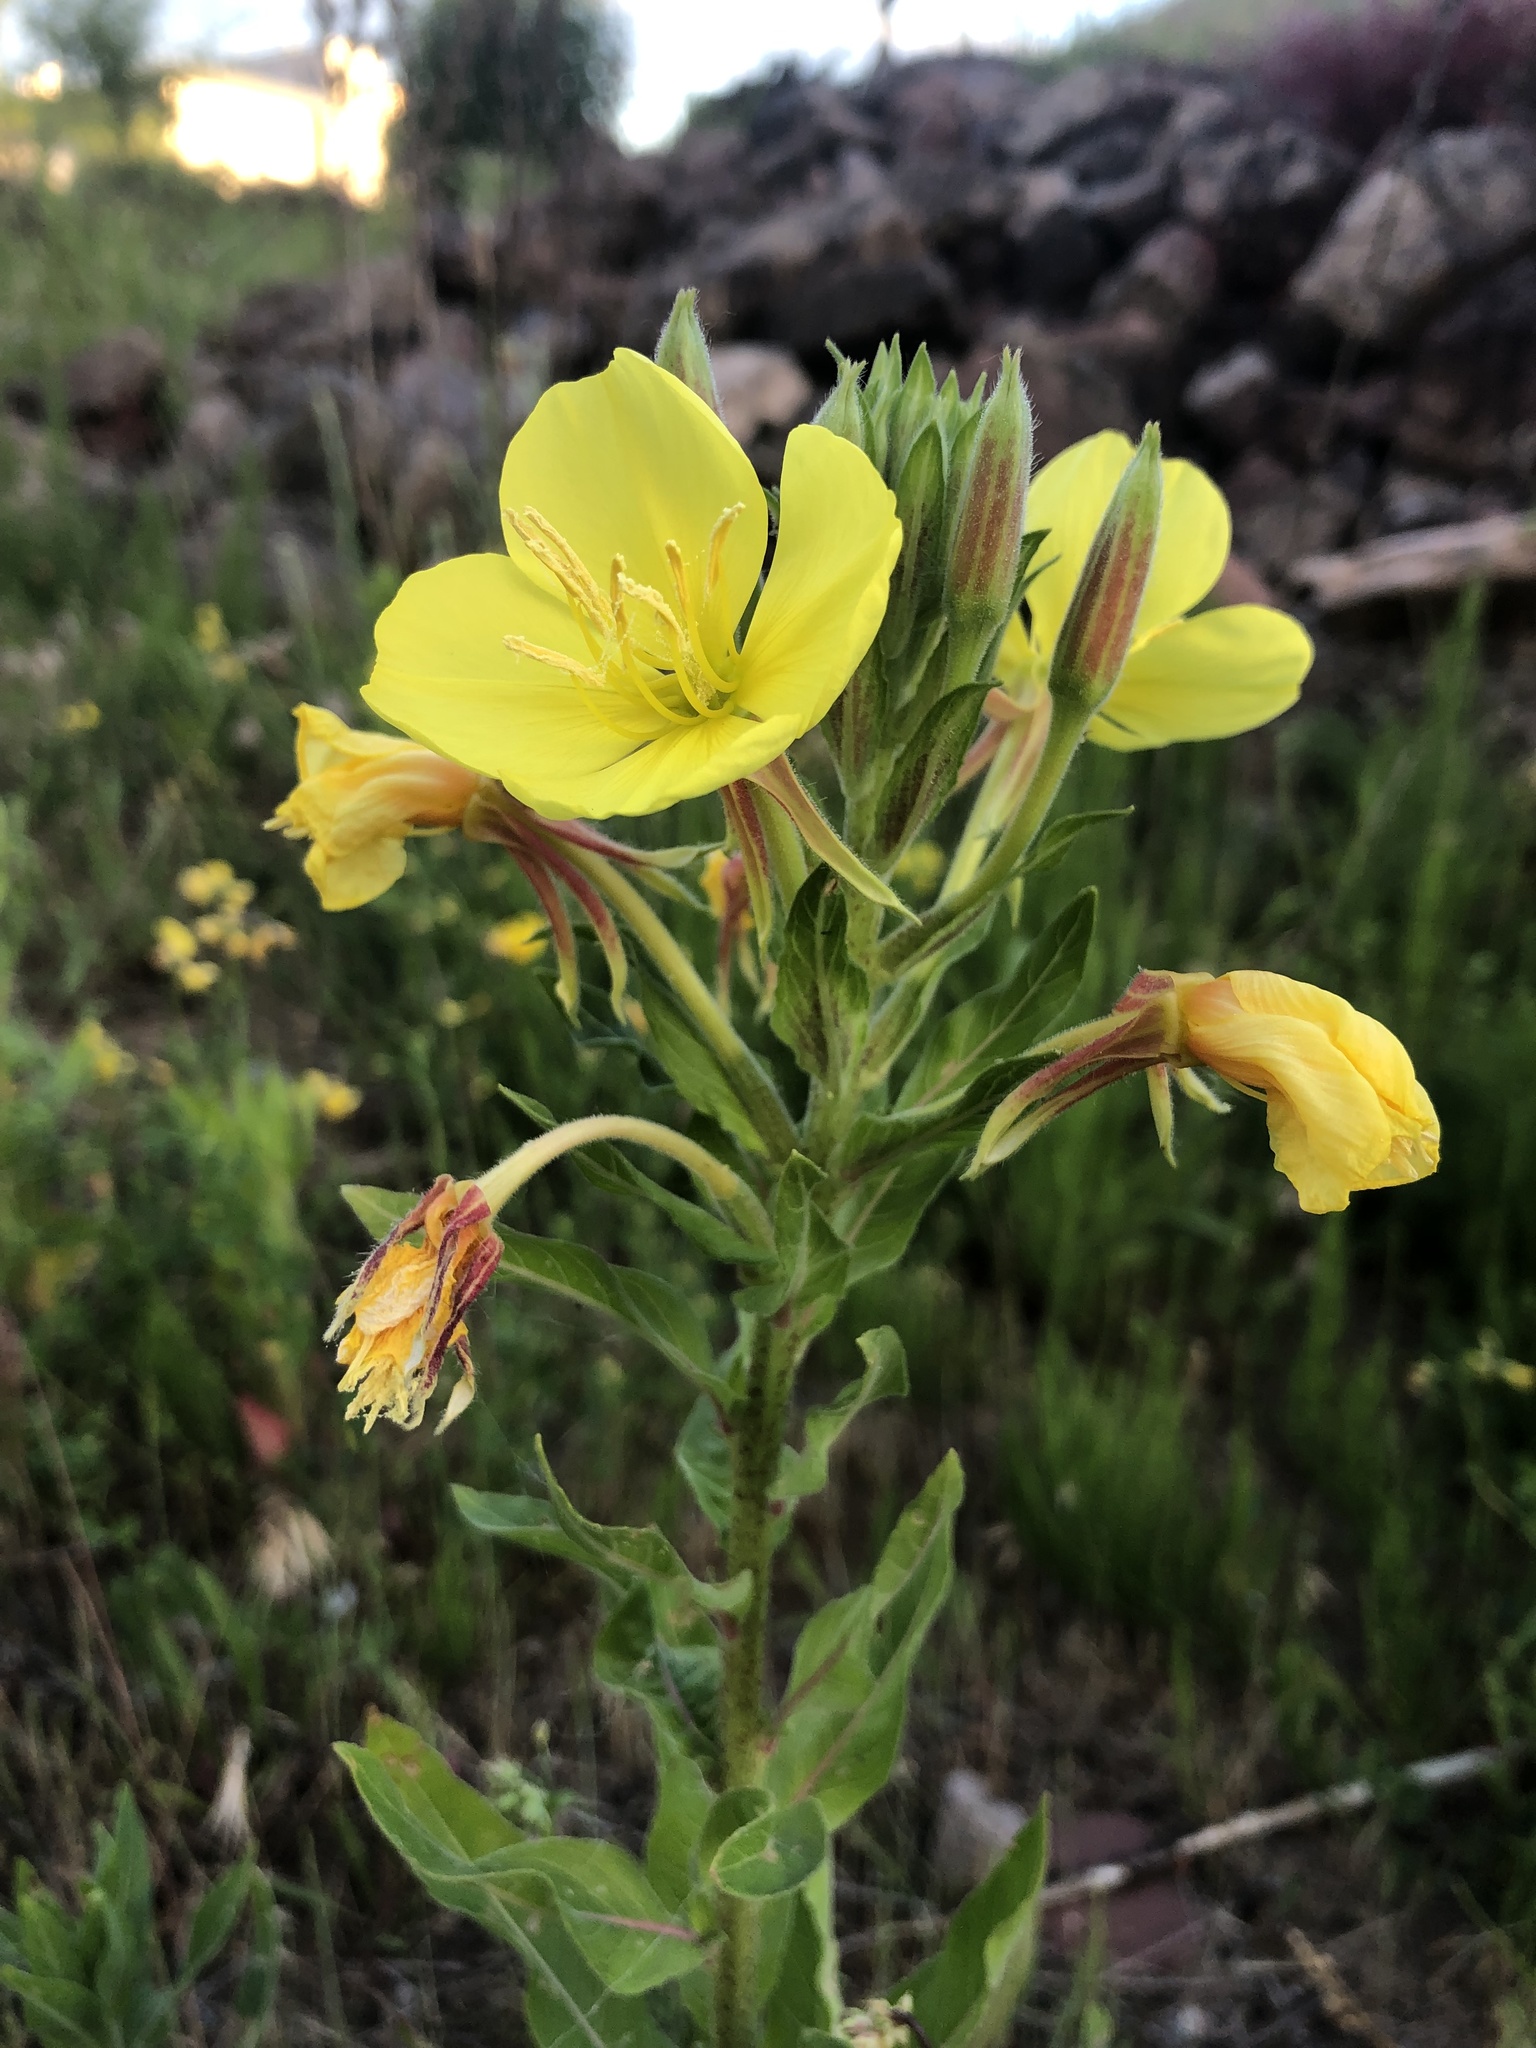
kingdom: Plantae
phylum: Tracheophyta
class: Magnoliopsida
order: Myrtales
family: Onagraceae
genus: Oenothera
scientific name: Oenothera fallax
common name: Intermediate evening-primrose
